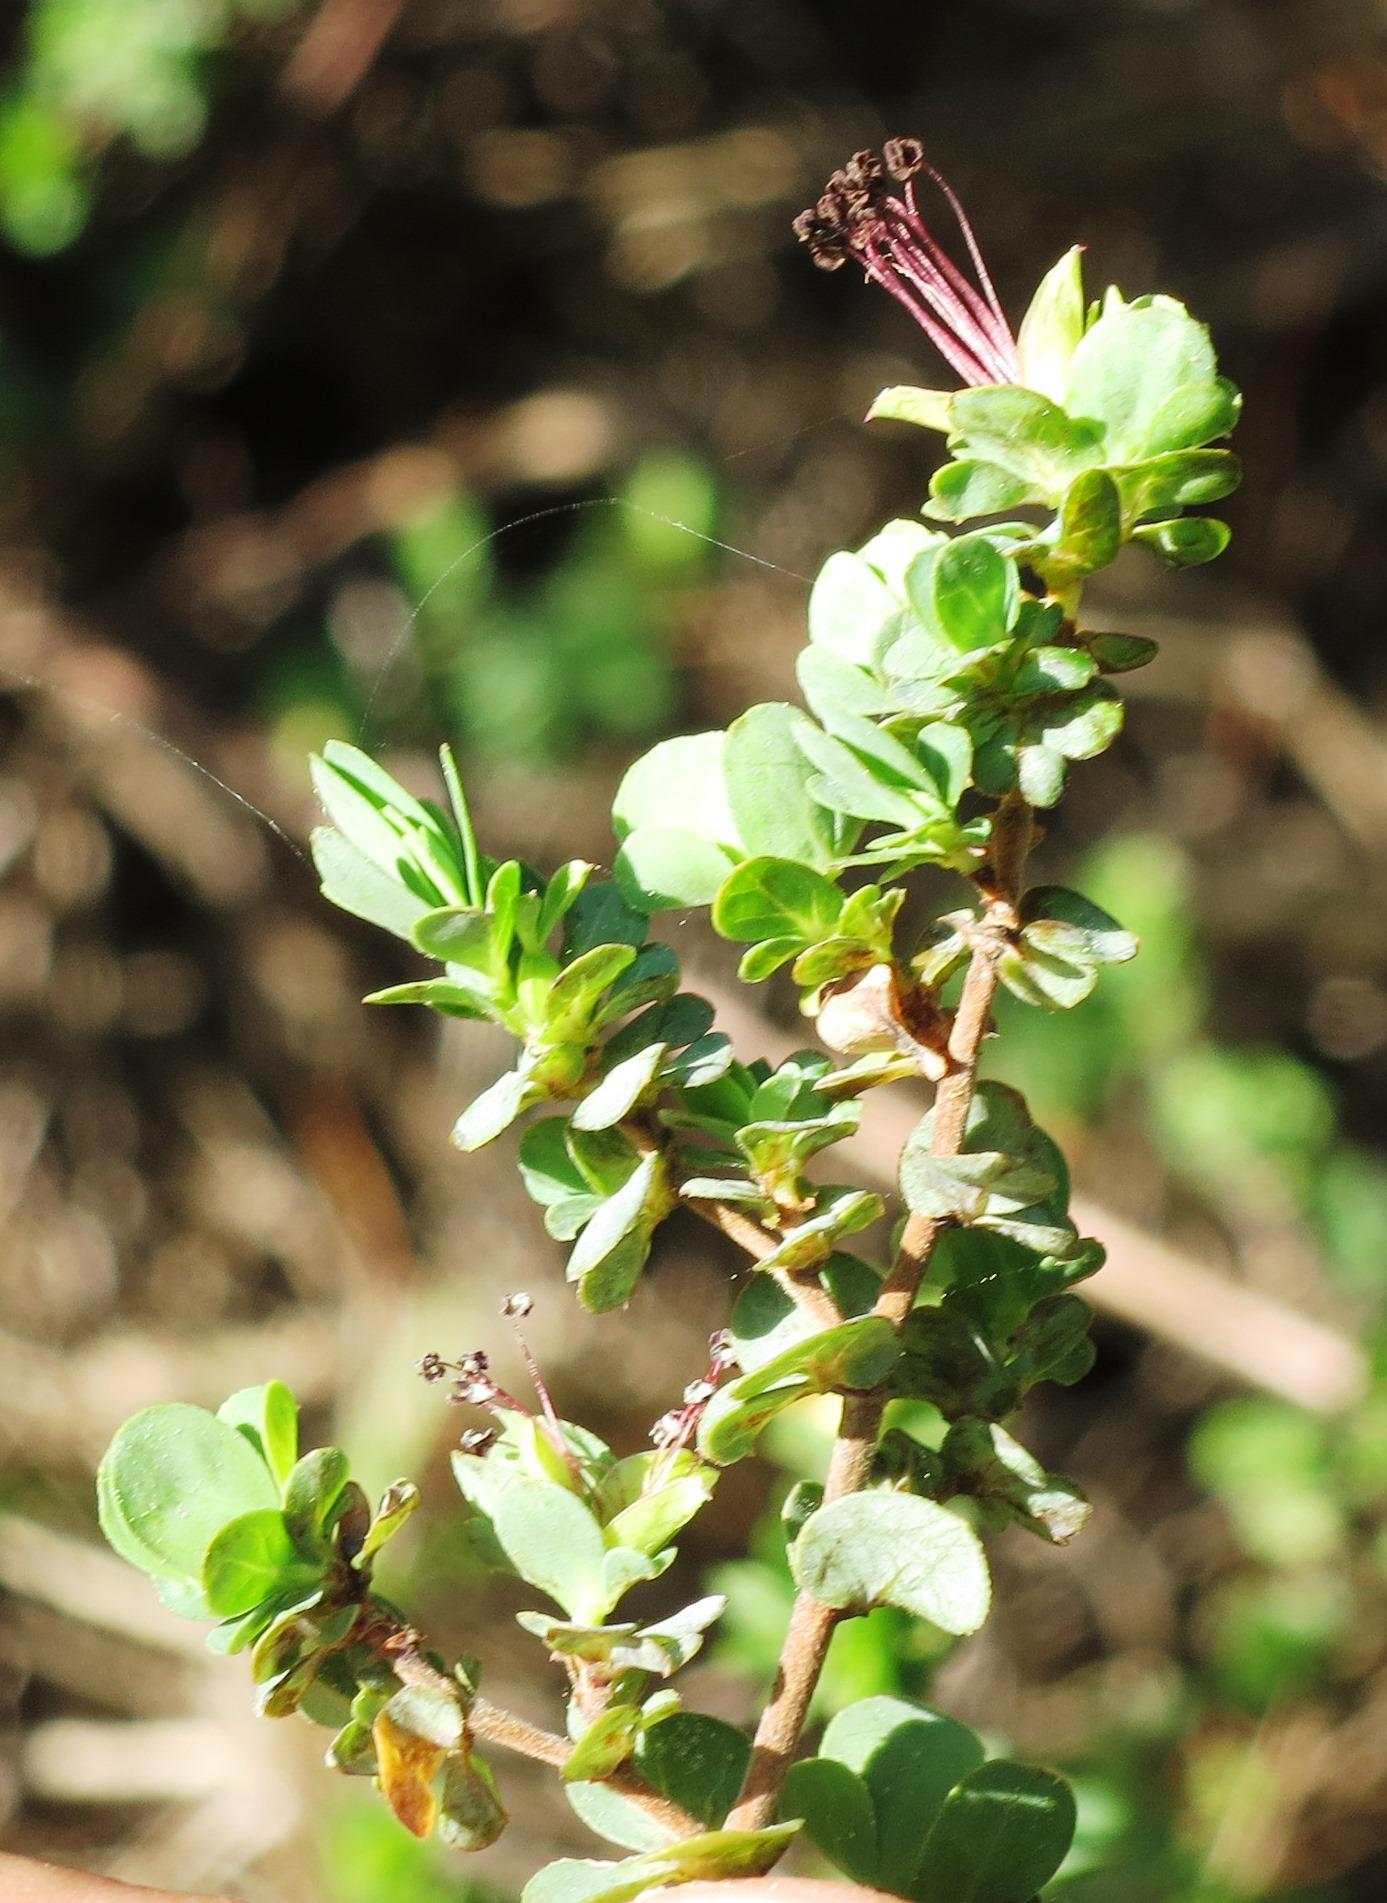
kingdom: Plantae
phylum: Tracheophyta
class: Magnoliopsida
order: Rosales
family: Rosaceae
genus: Cliffortia
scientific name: Cliffortia obcordata
